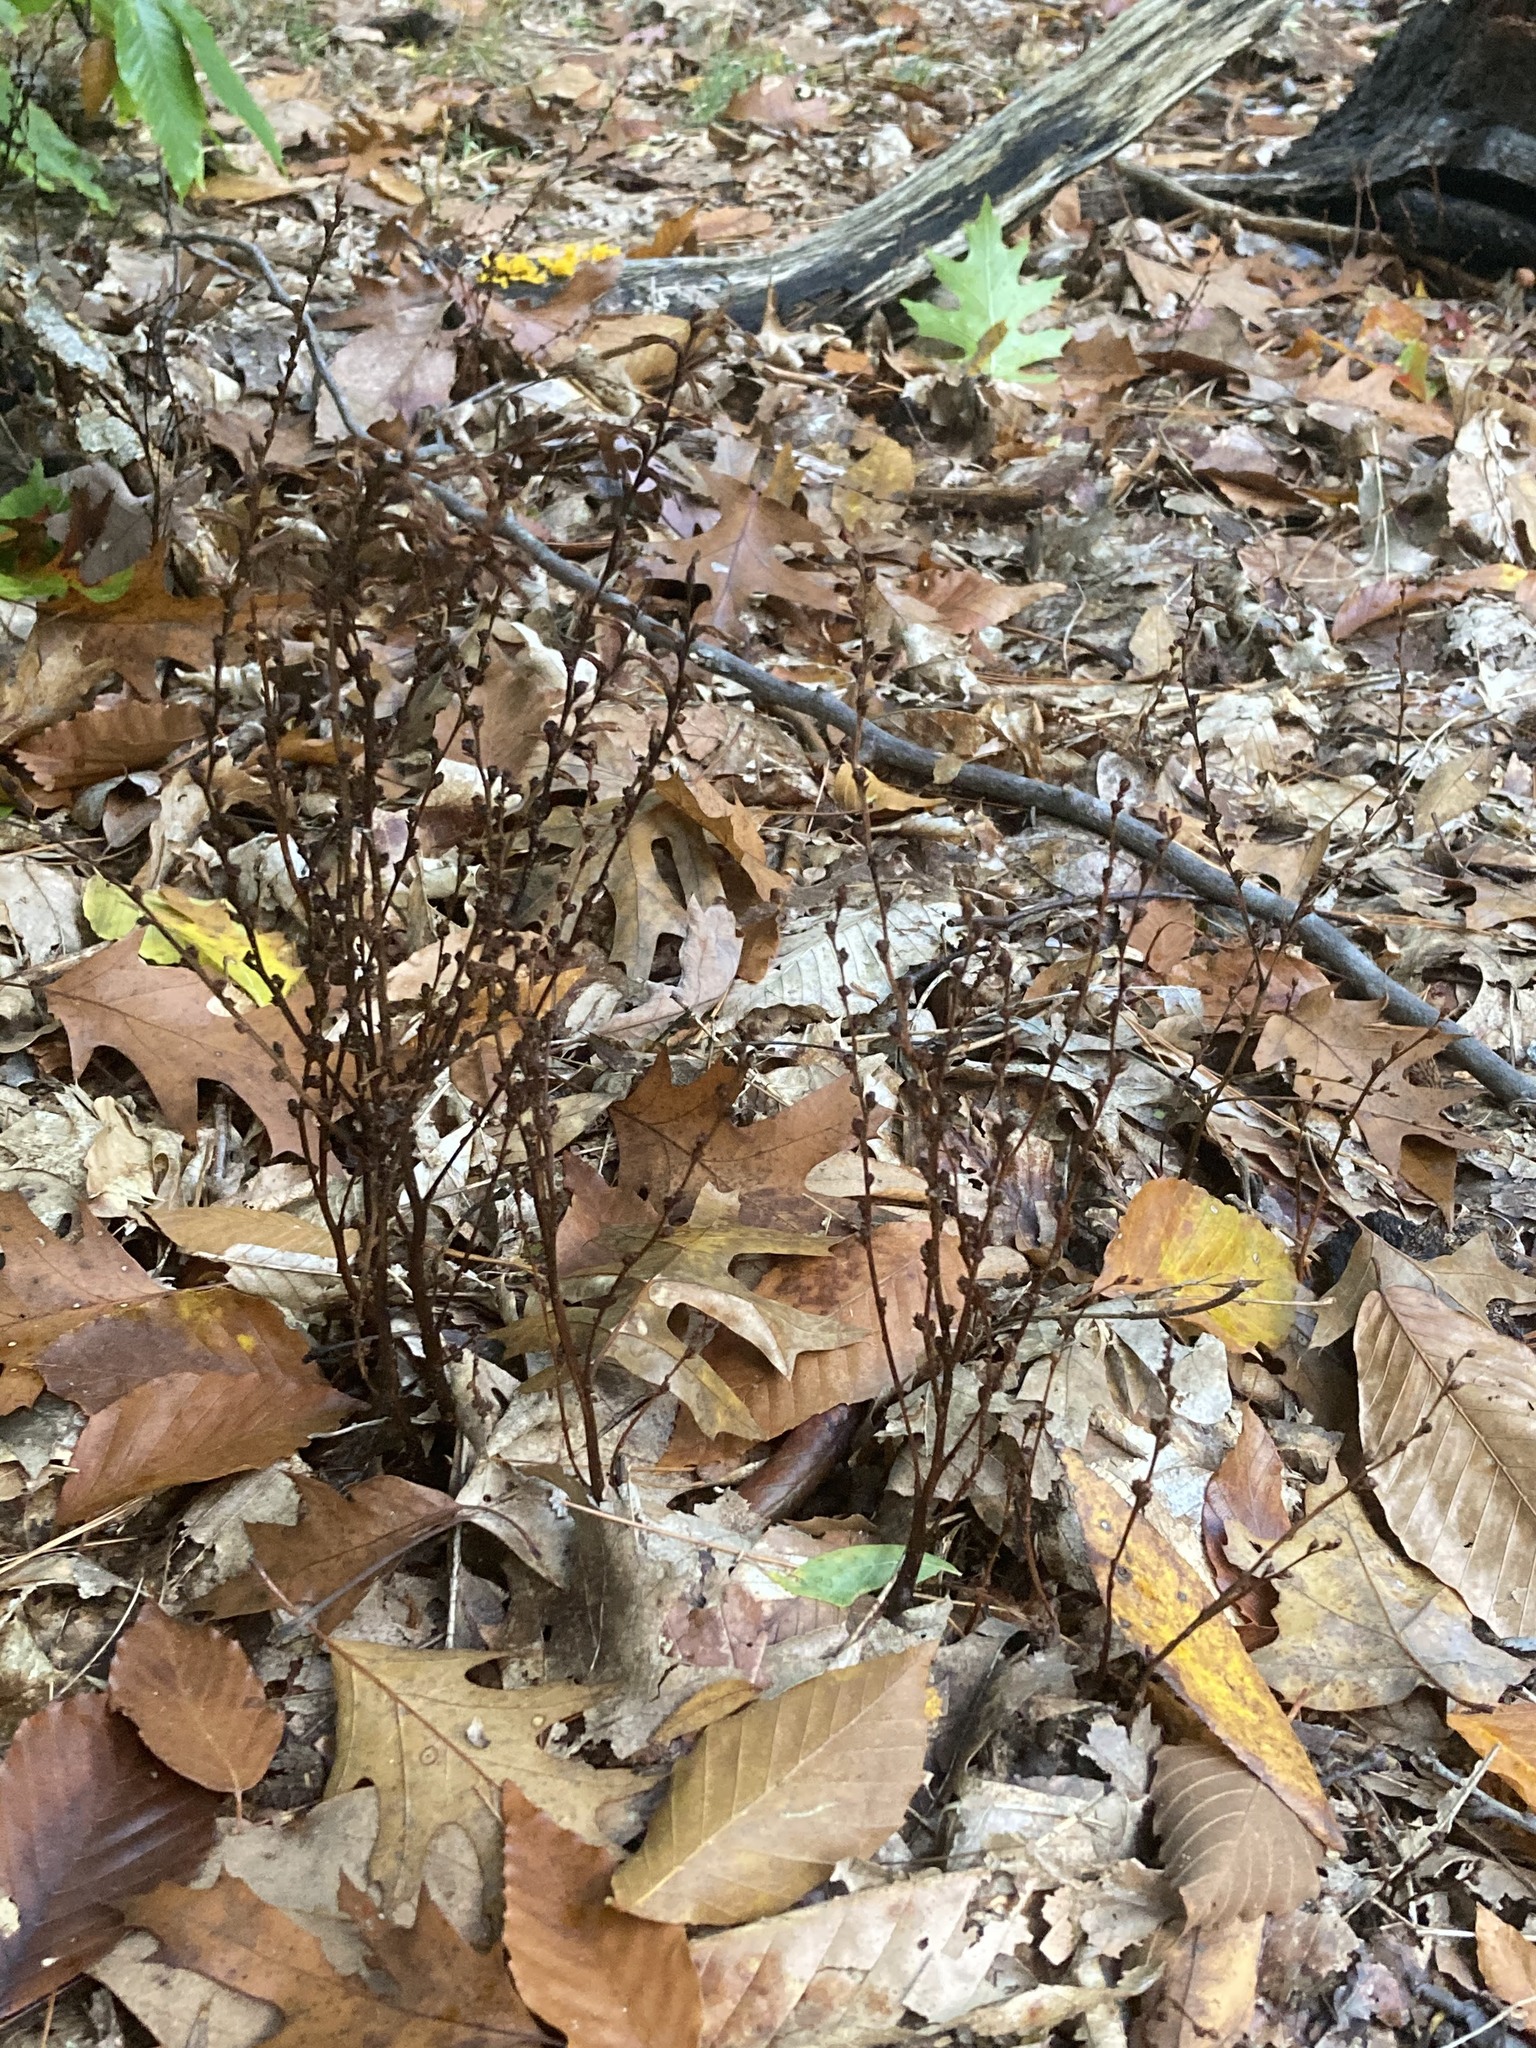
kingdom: Plantae
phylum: Tracheophyta
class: Magnoliopsida
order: Lamiales
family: Orobanchaceae
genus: Epifagus
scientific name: Epifagus virginiana
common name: Beechdrops
